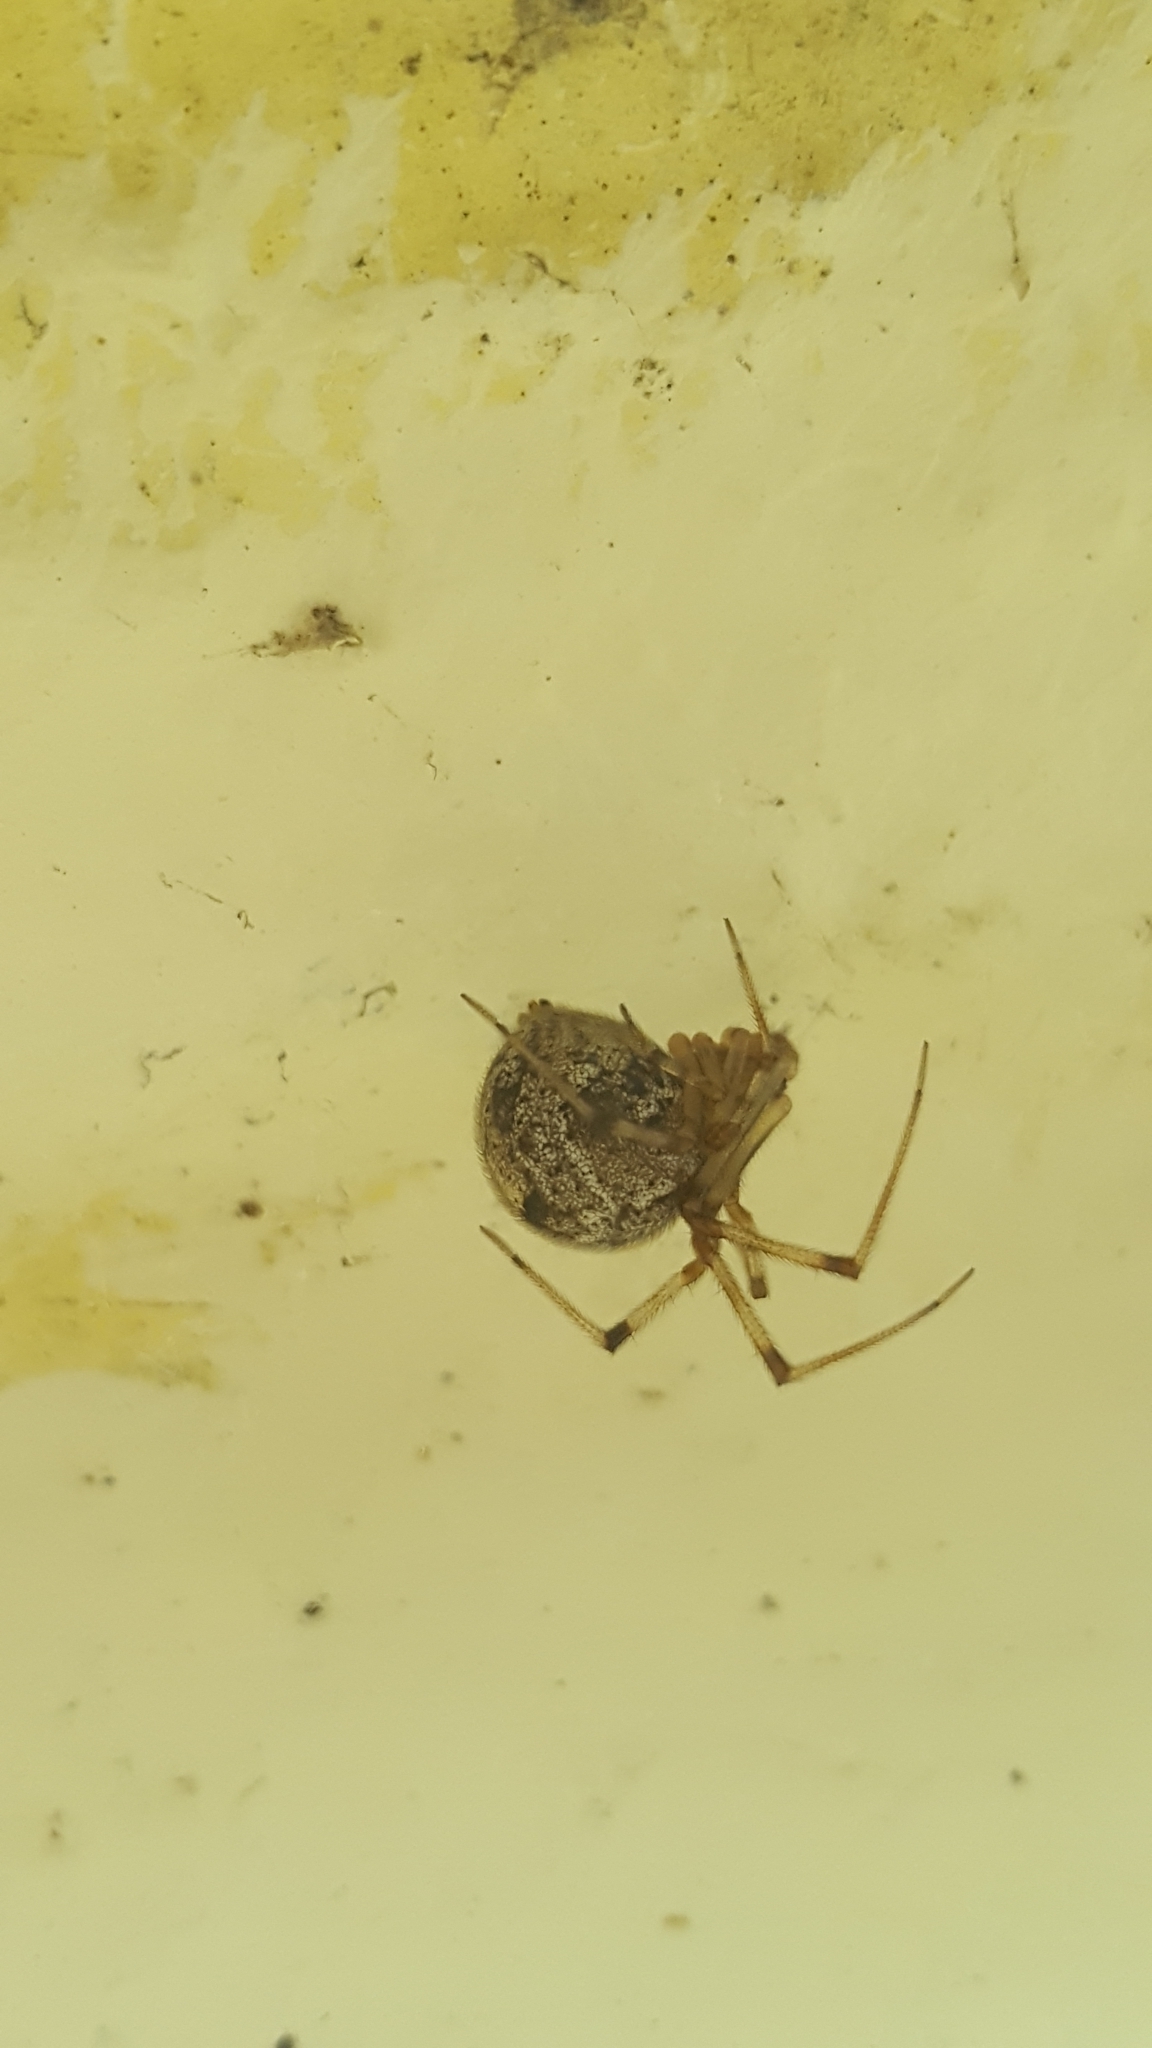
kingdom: Animalia
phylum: Arthropoda
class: Arachnida
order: Araneae
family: Theridiidae
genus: Parasteatoda
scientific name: Parasteatoda tepidariorum
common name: Common house spider
